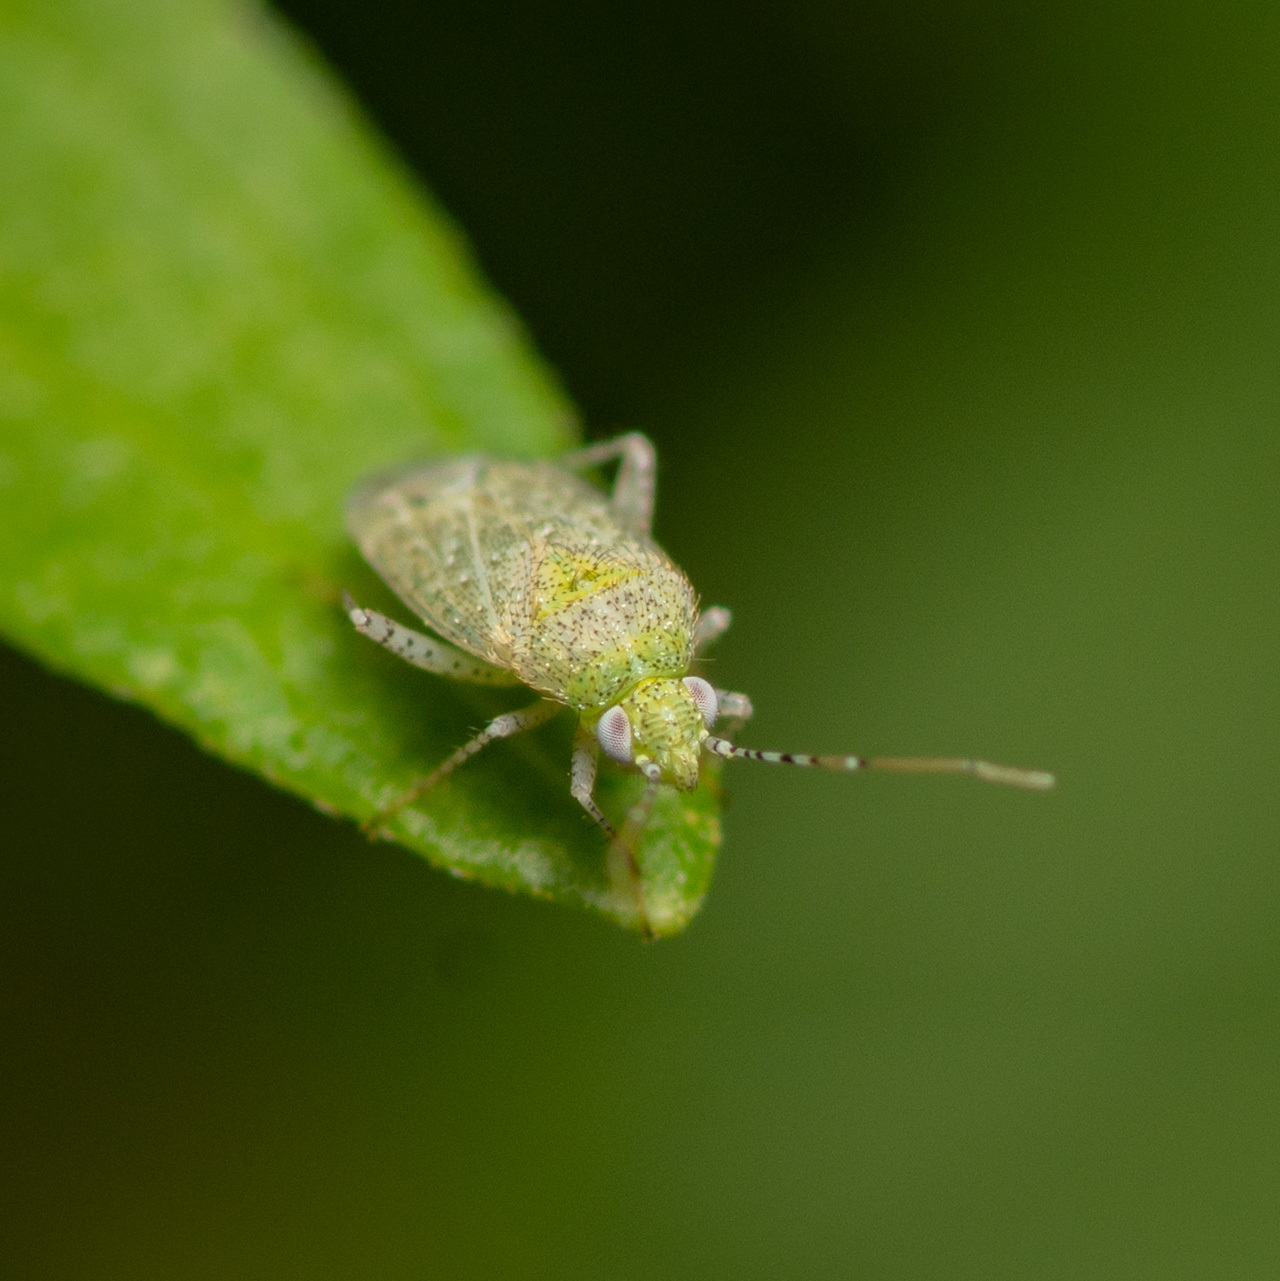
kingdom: Animalia
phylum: Arthropoda
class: Insecta
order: Hemiptera
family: Miridae
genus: Pseudatomoscelis
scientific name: Pseudatomoscelis seriatus
